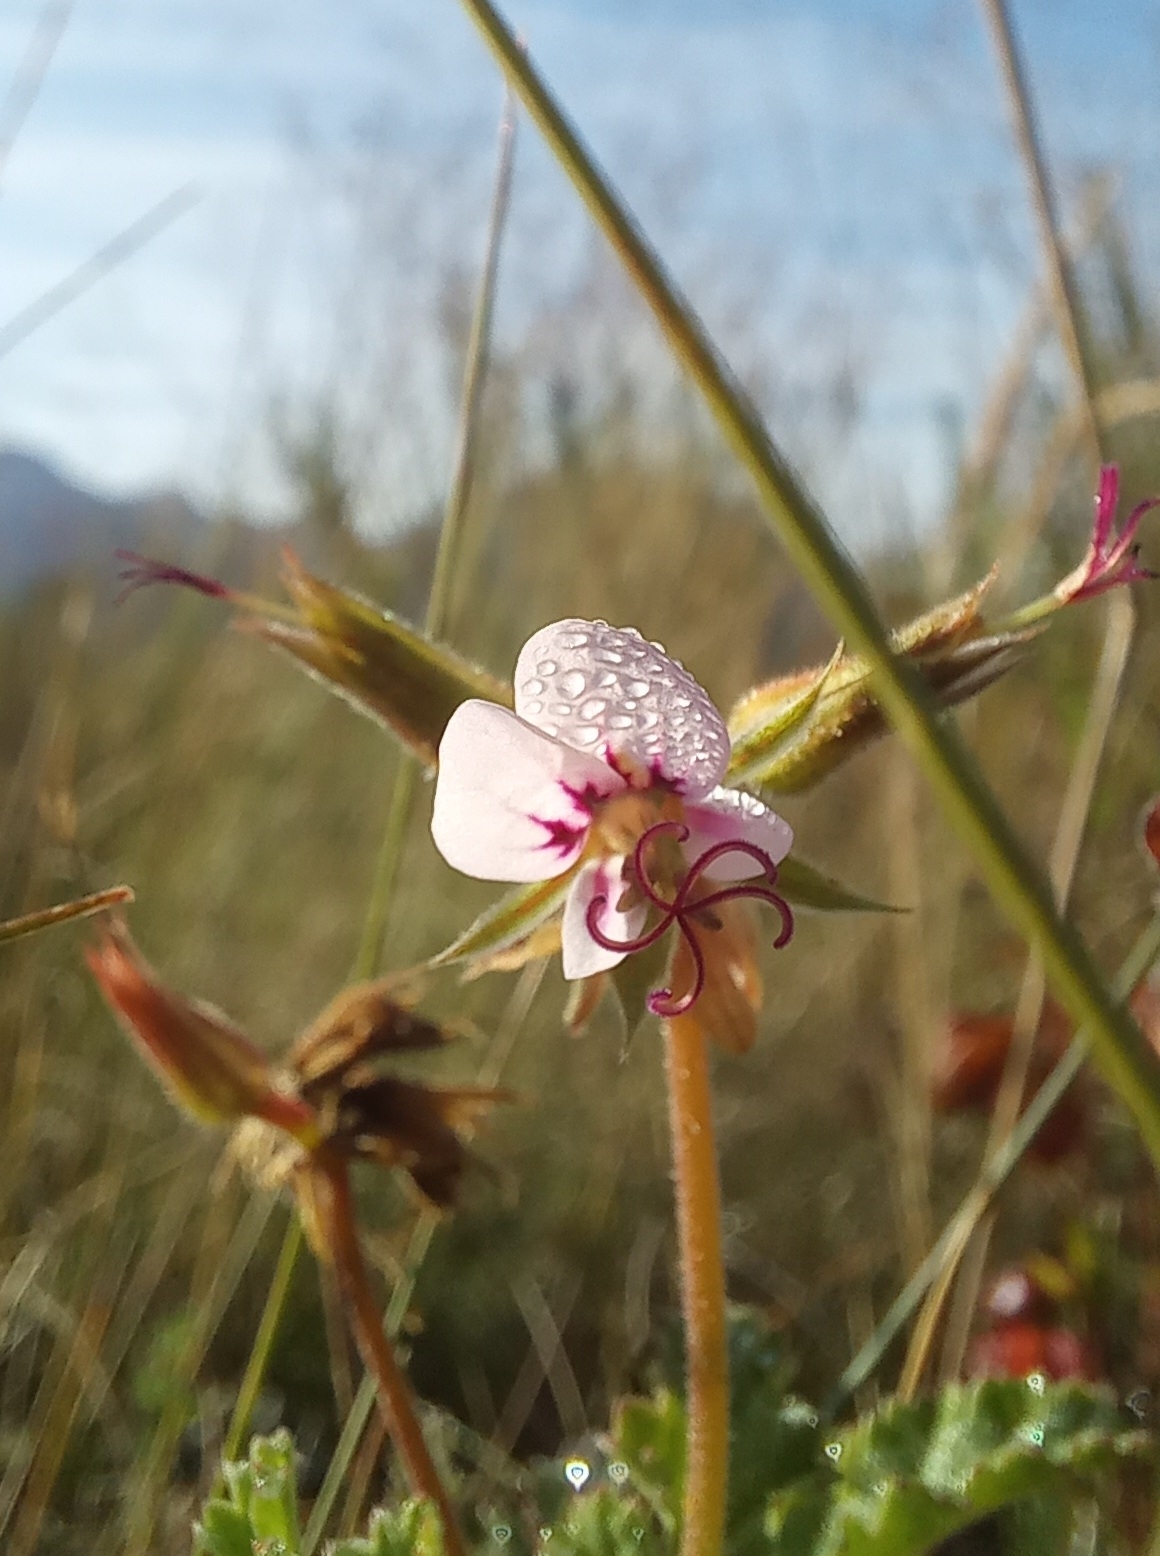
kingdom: Plantae
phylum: Tracheophyta
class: Magnoliopsida
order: Geraniales
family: Geraniaceae
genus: Pelargonium
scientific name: Pelargonium candicans
